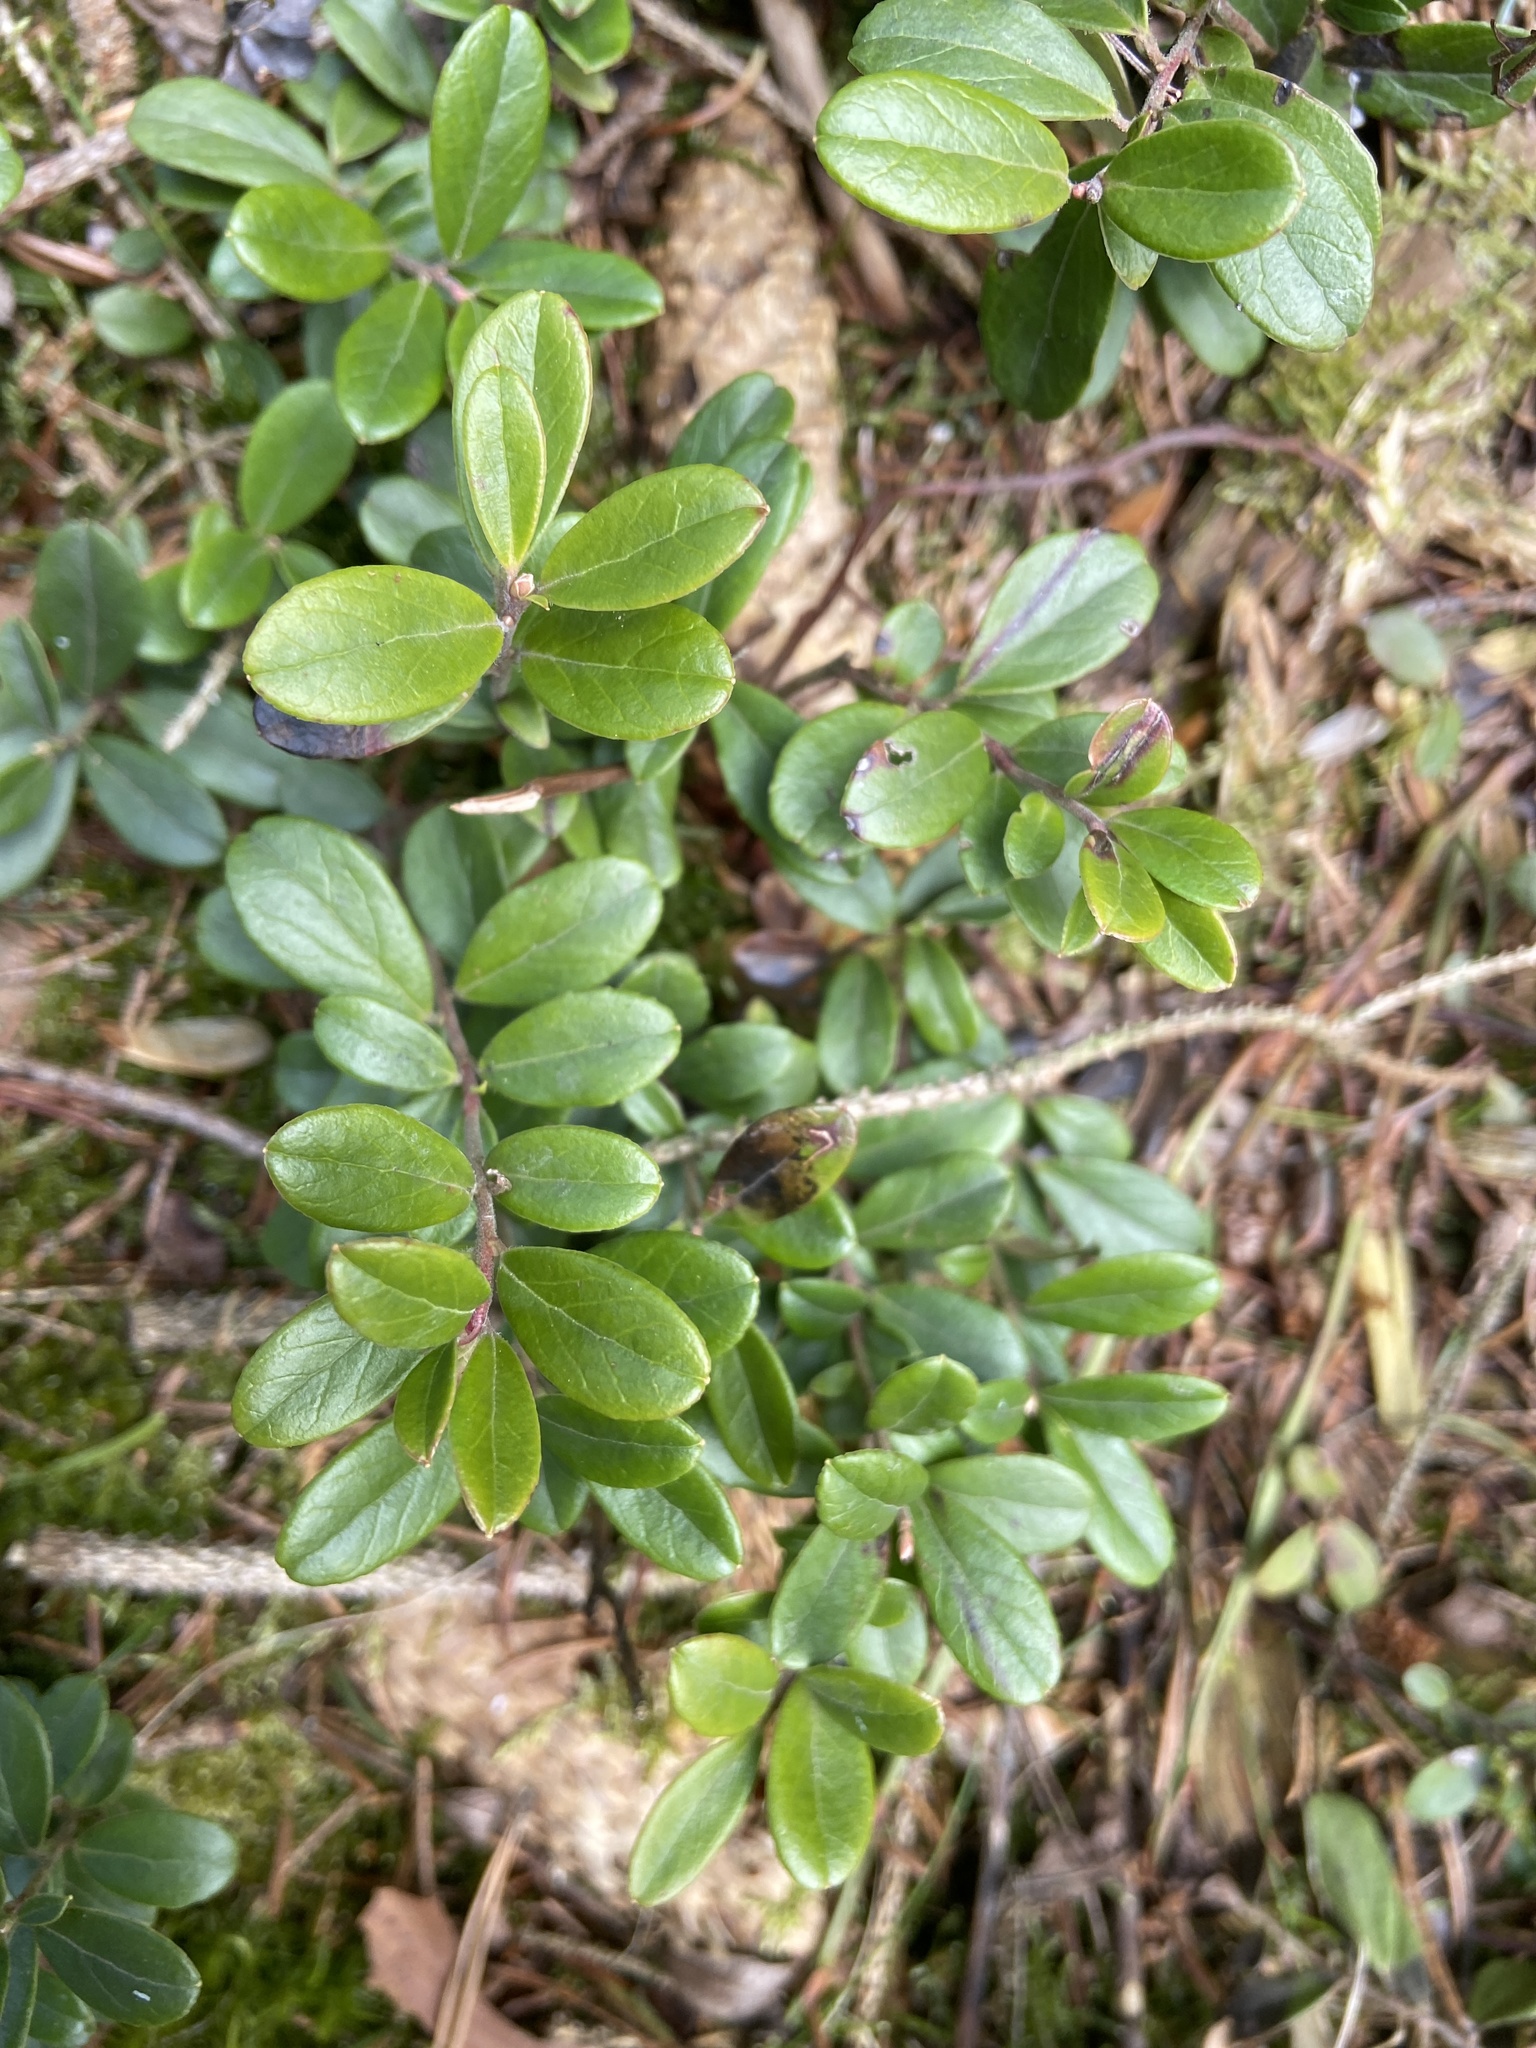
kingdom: Plantae
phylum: Tracheophyta
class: Magnoliopsida
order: Ericales
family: Ericaceae
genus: Vaccinium
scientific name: Vaccinium vitis-idaea
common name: Cowberry
